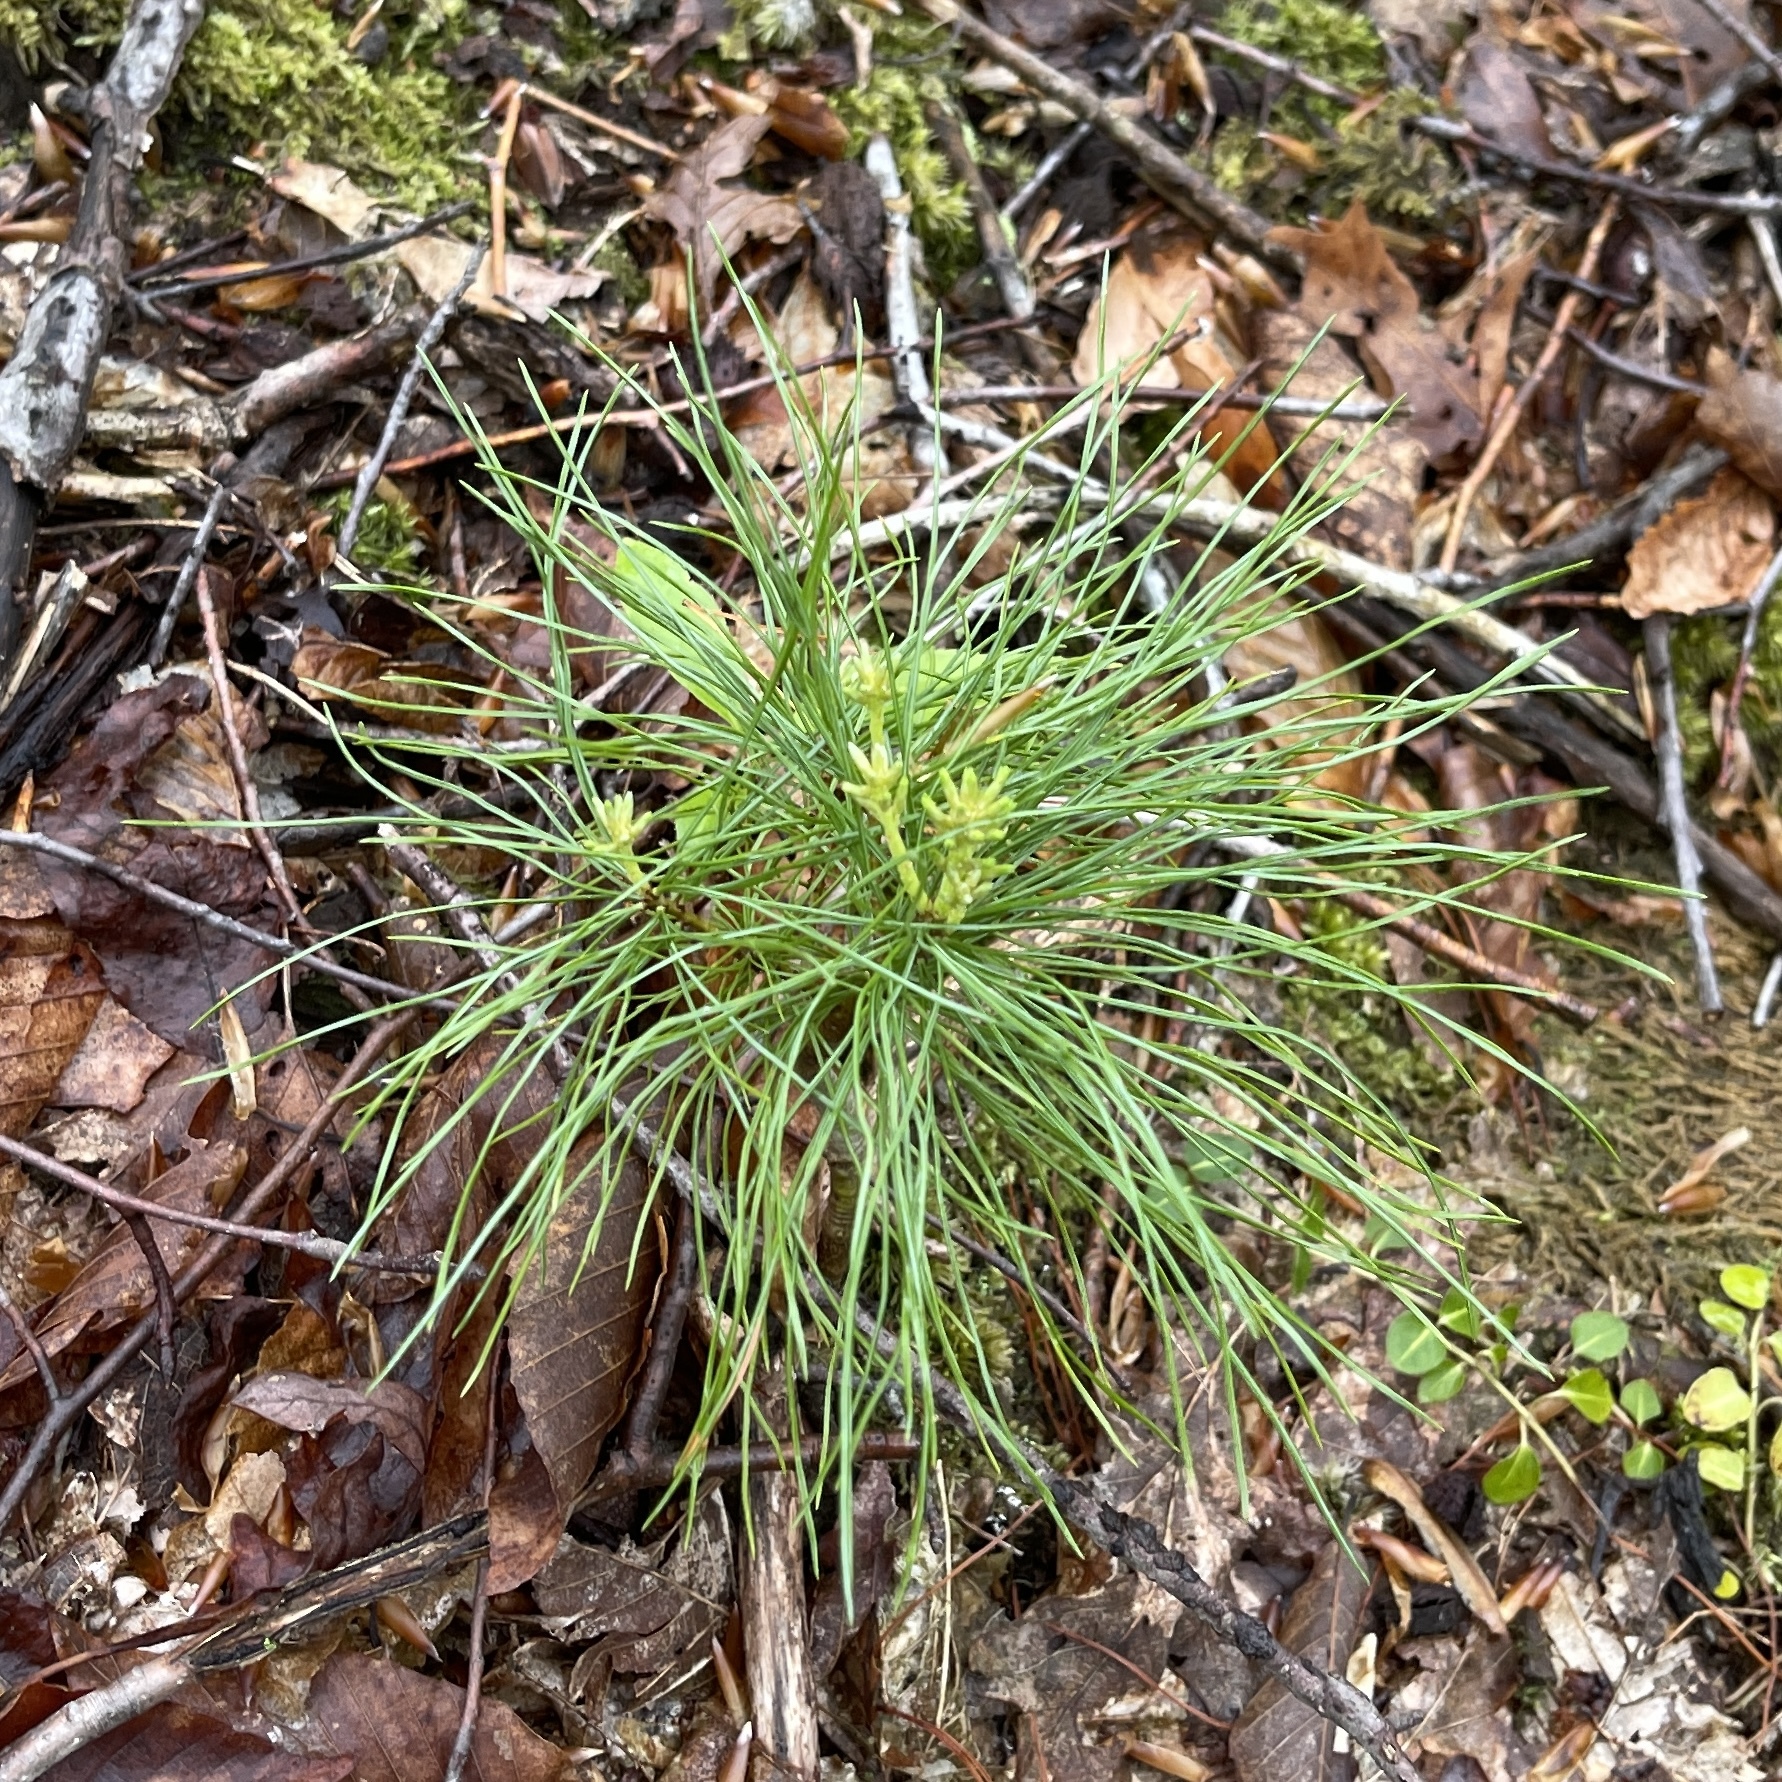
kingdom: Plantae
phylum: Tracheophyta
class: Pinopsida
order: Pinales
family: Pinaceae
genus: Pinus
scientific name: Pinus strobus
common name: Weymouth pine
